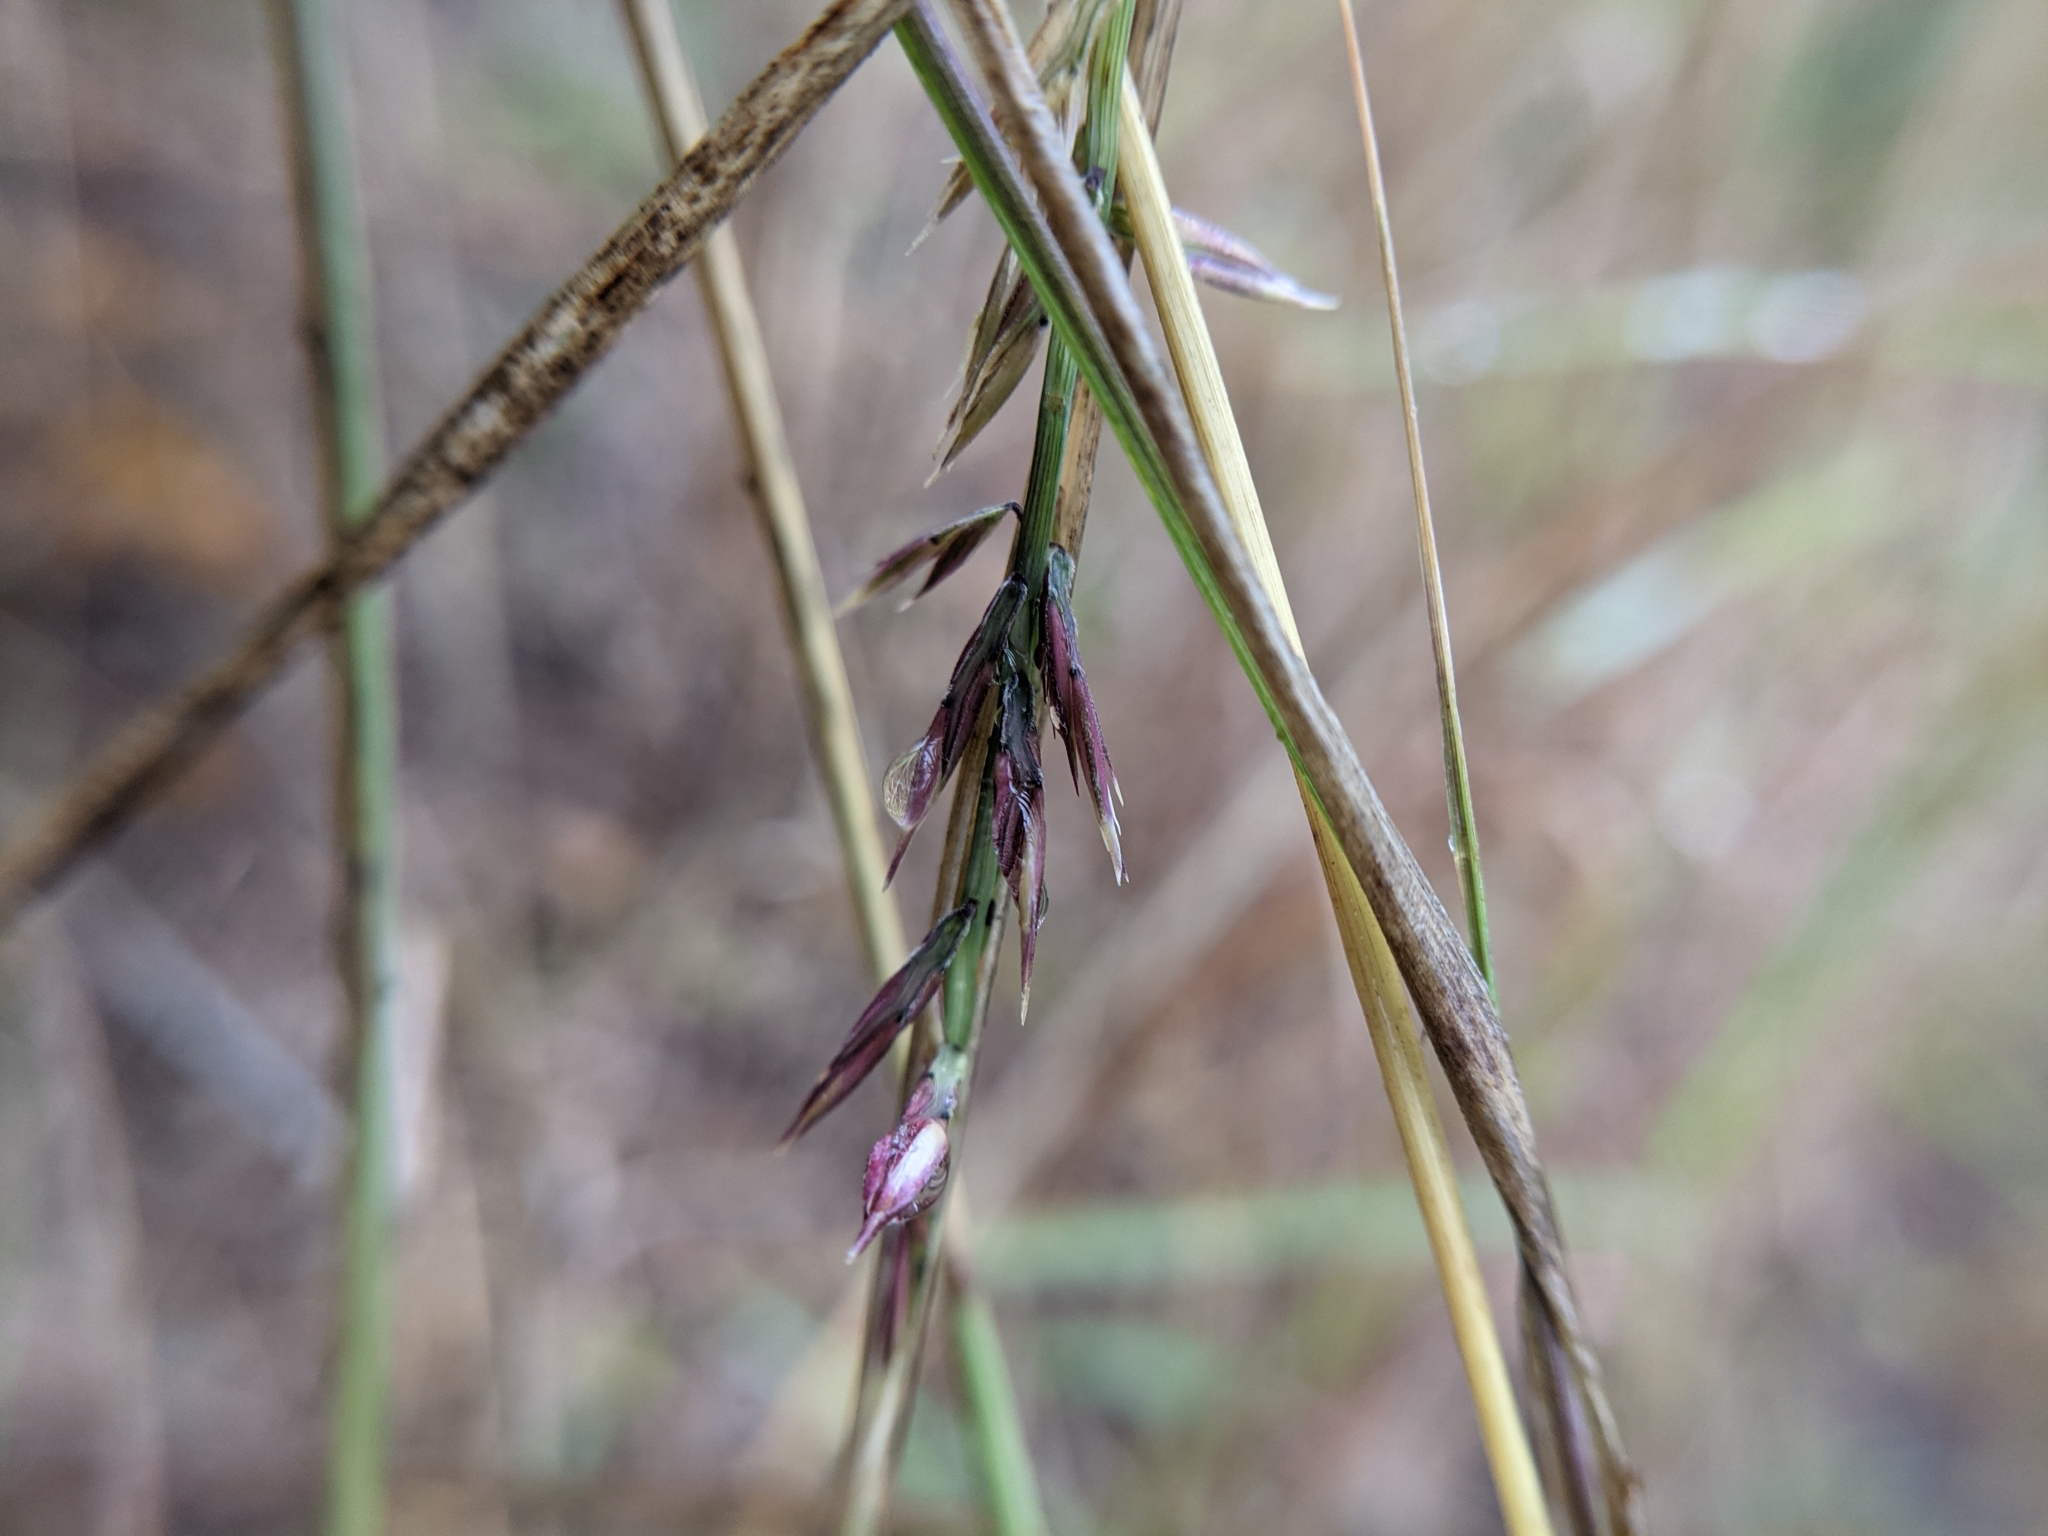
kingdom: Plantae
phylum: Tracheophyta
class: Liliopsida
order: Poales
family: Poaceae
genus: Bouteloua
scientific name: Bouteloua curtipendula
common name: Side-oats grama
